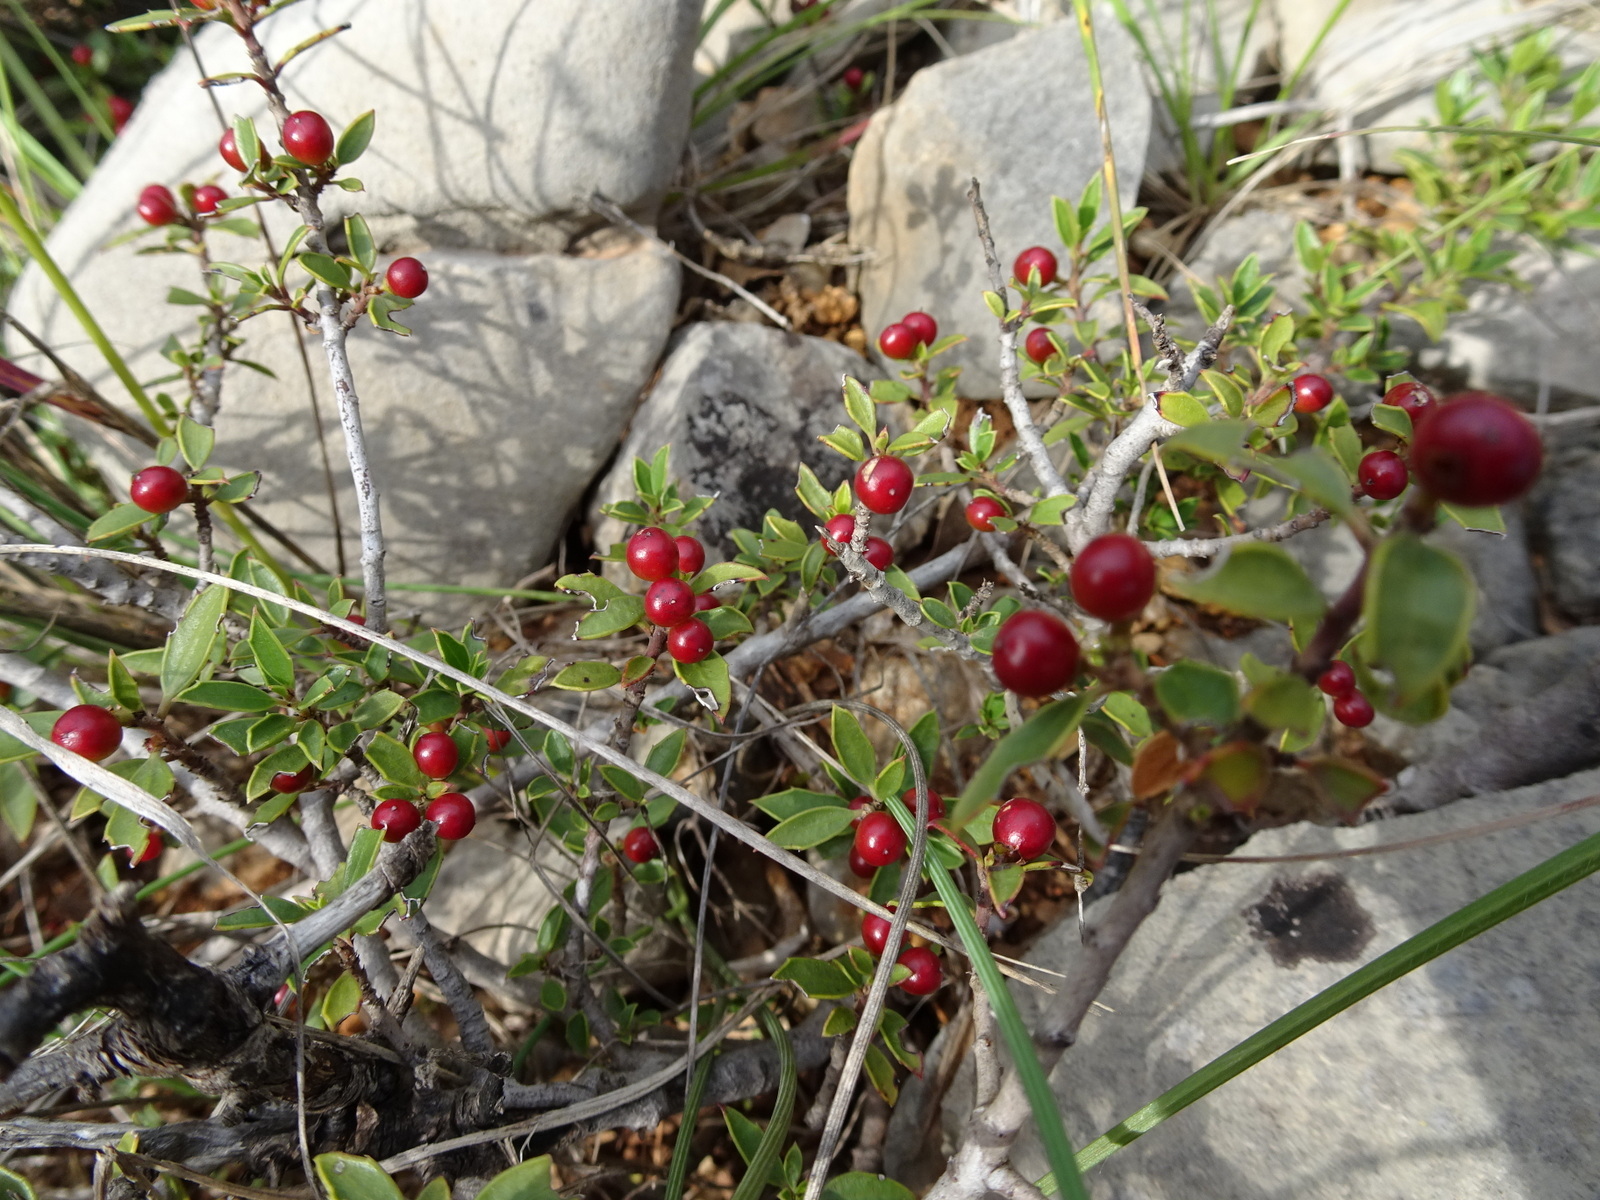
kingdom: Plantae
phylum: Tracheophyta
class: Magnoliopsida
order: Rosales
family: Rhamnaceae
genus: Rhamnus
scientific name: Rhamnus alaternus
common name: Mediterranean buckthorn
